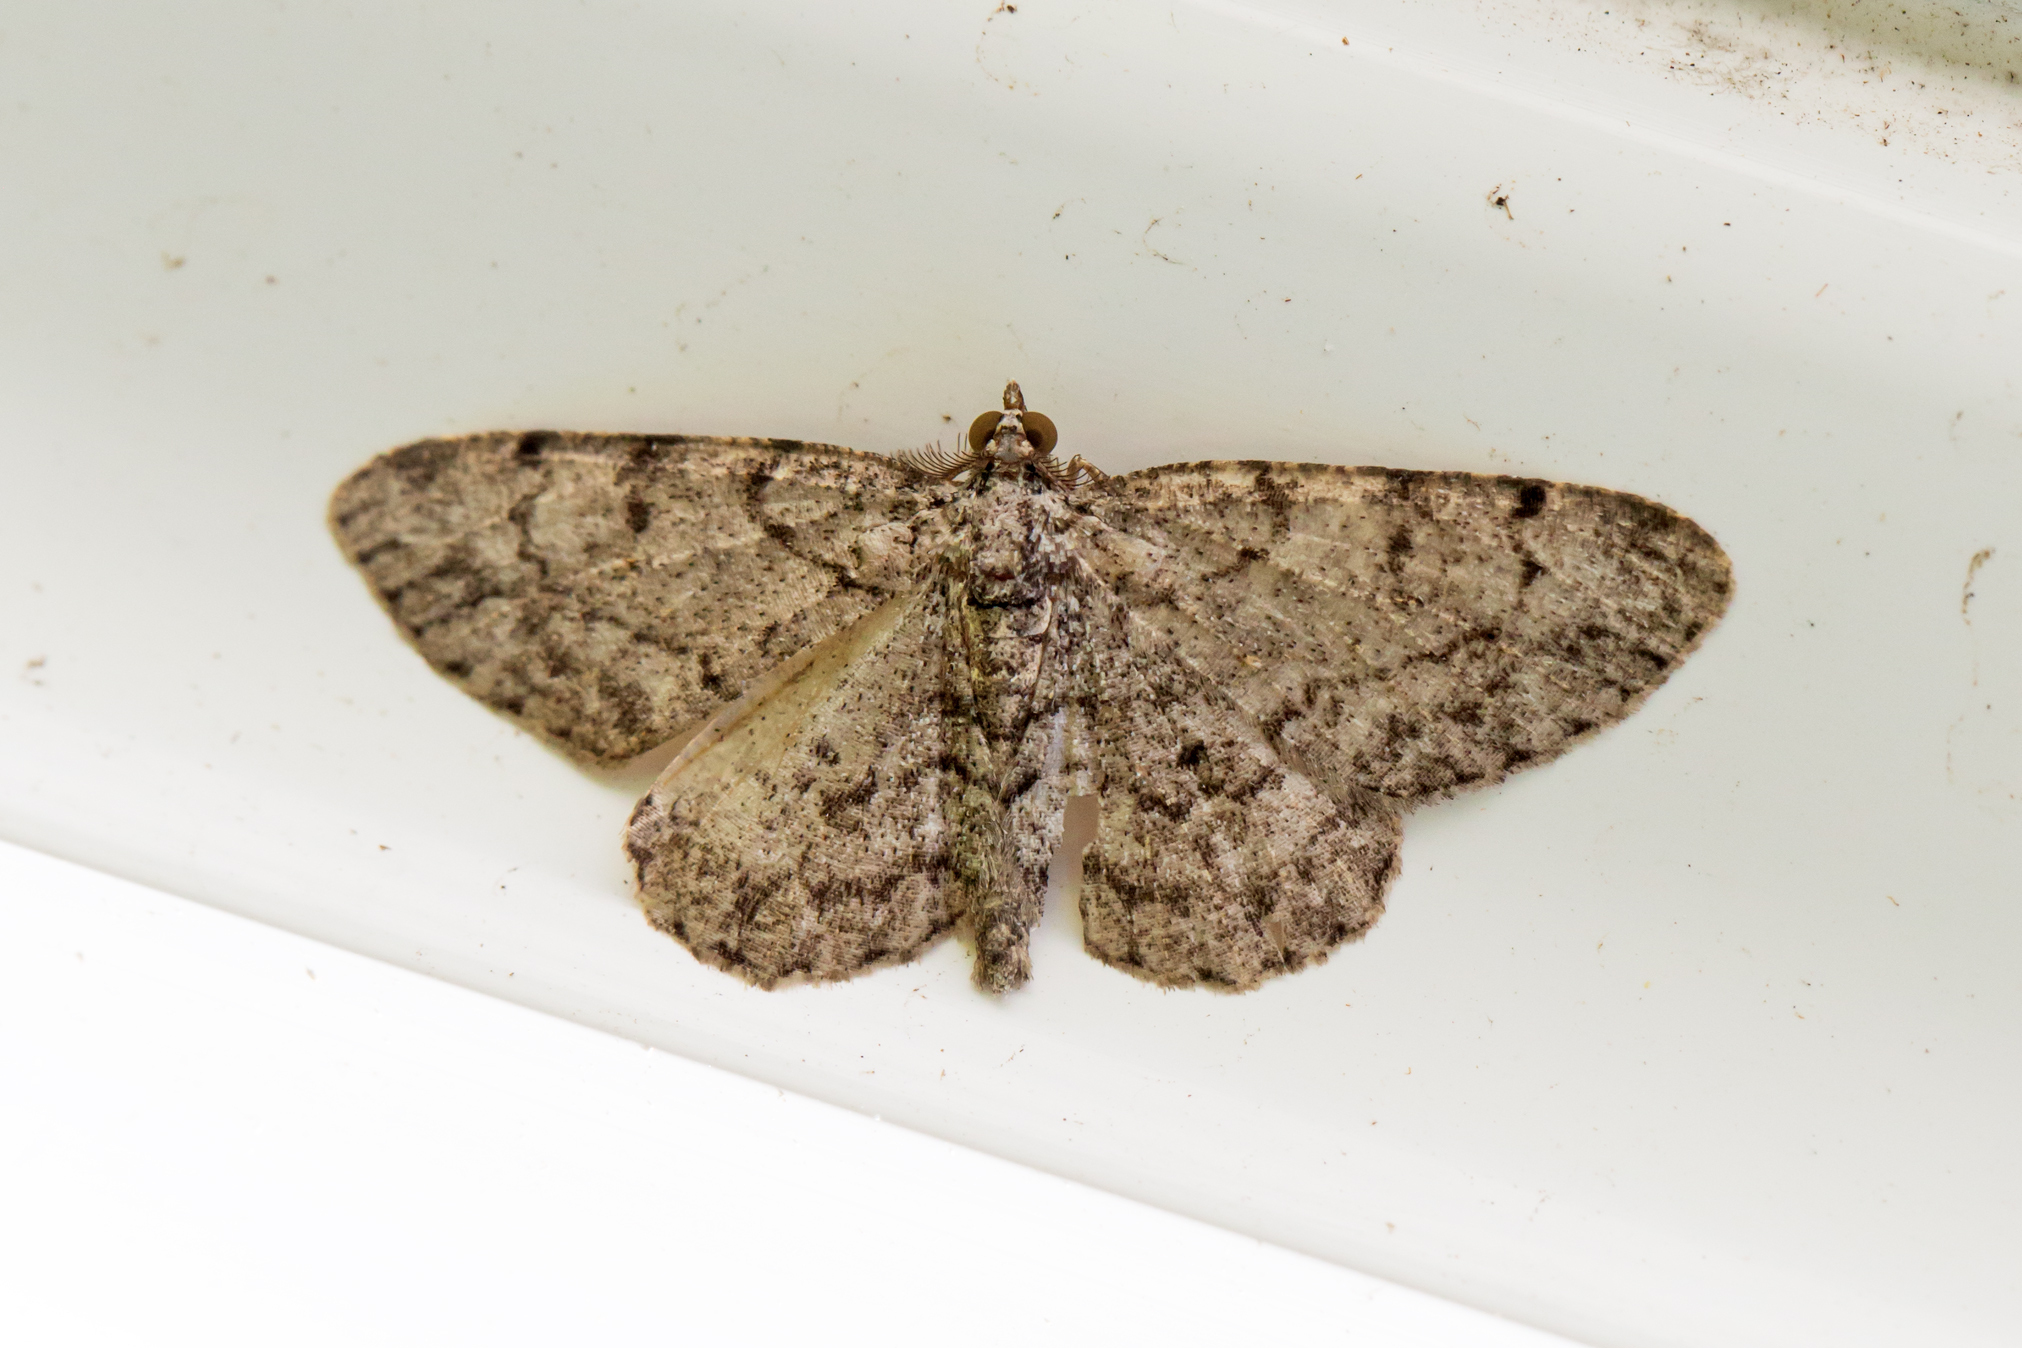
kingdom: Animalia
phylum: Arthropoda
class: Insecta
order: Lepidoptera
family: Geometridae
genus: Protoboarmia
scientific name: Protoboarmia porcelaria
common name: Porcelain gray
